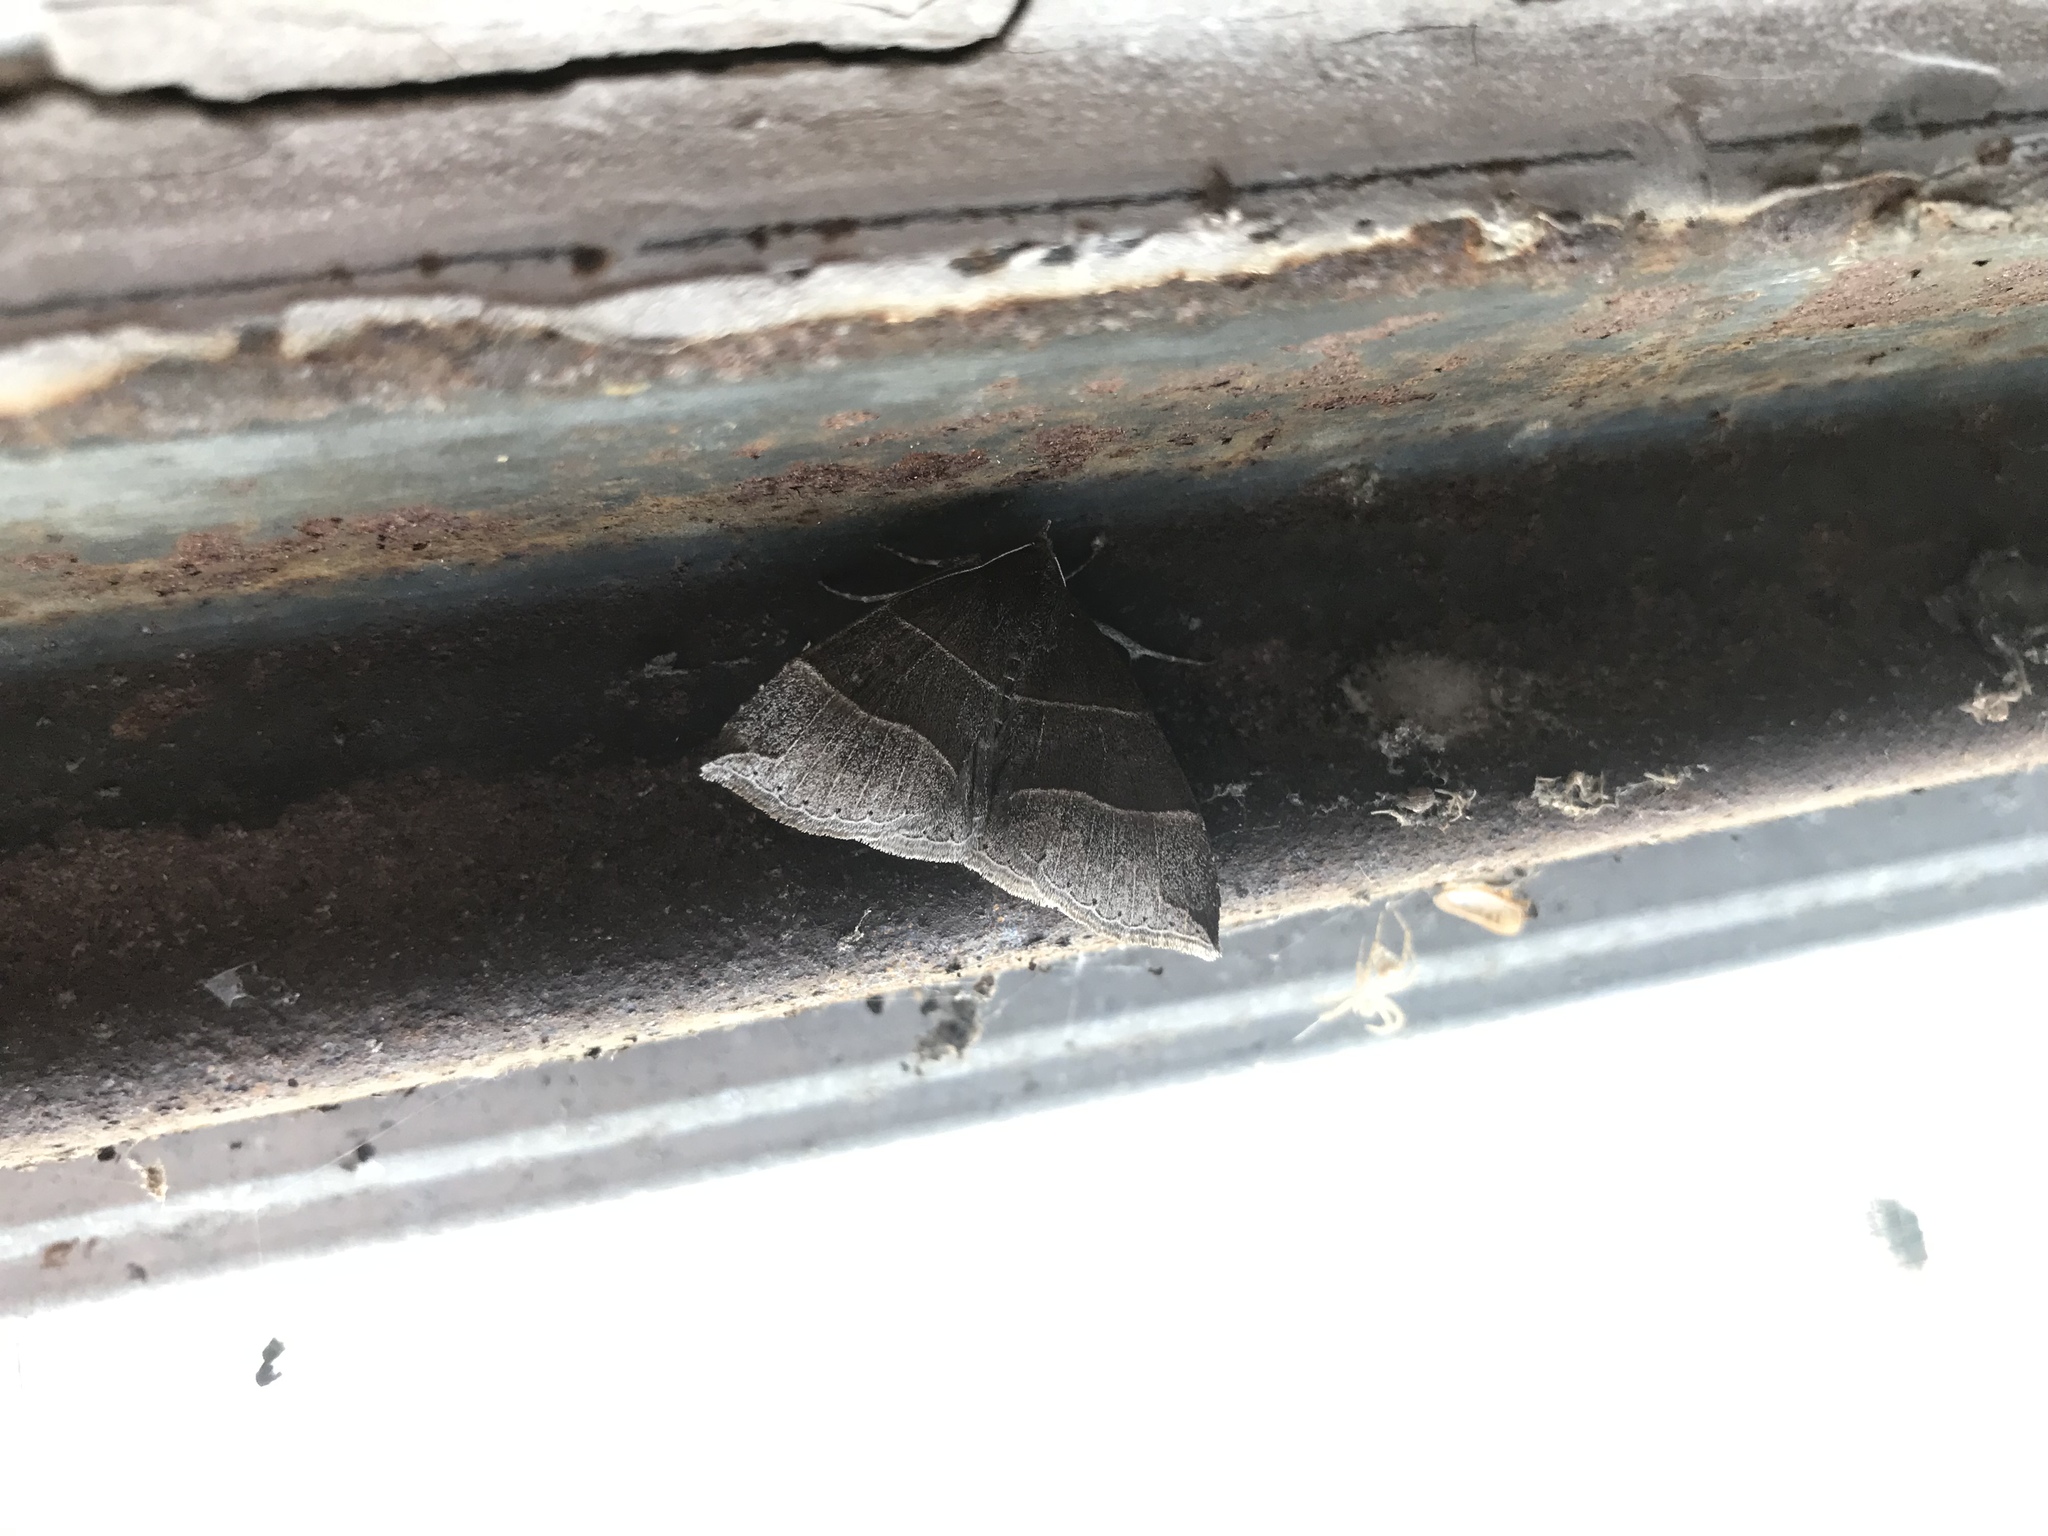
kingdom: Animalia
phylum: Arthropoda
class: Insecta
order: Lepidoptera
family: Erebidae
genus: Parallelia
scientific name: Parallelia bistriaris
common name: Maple looper moth
